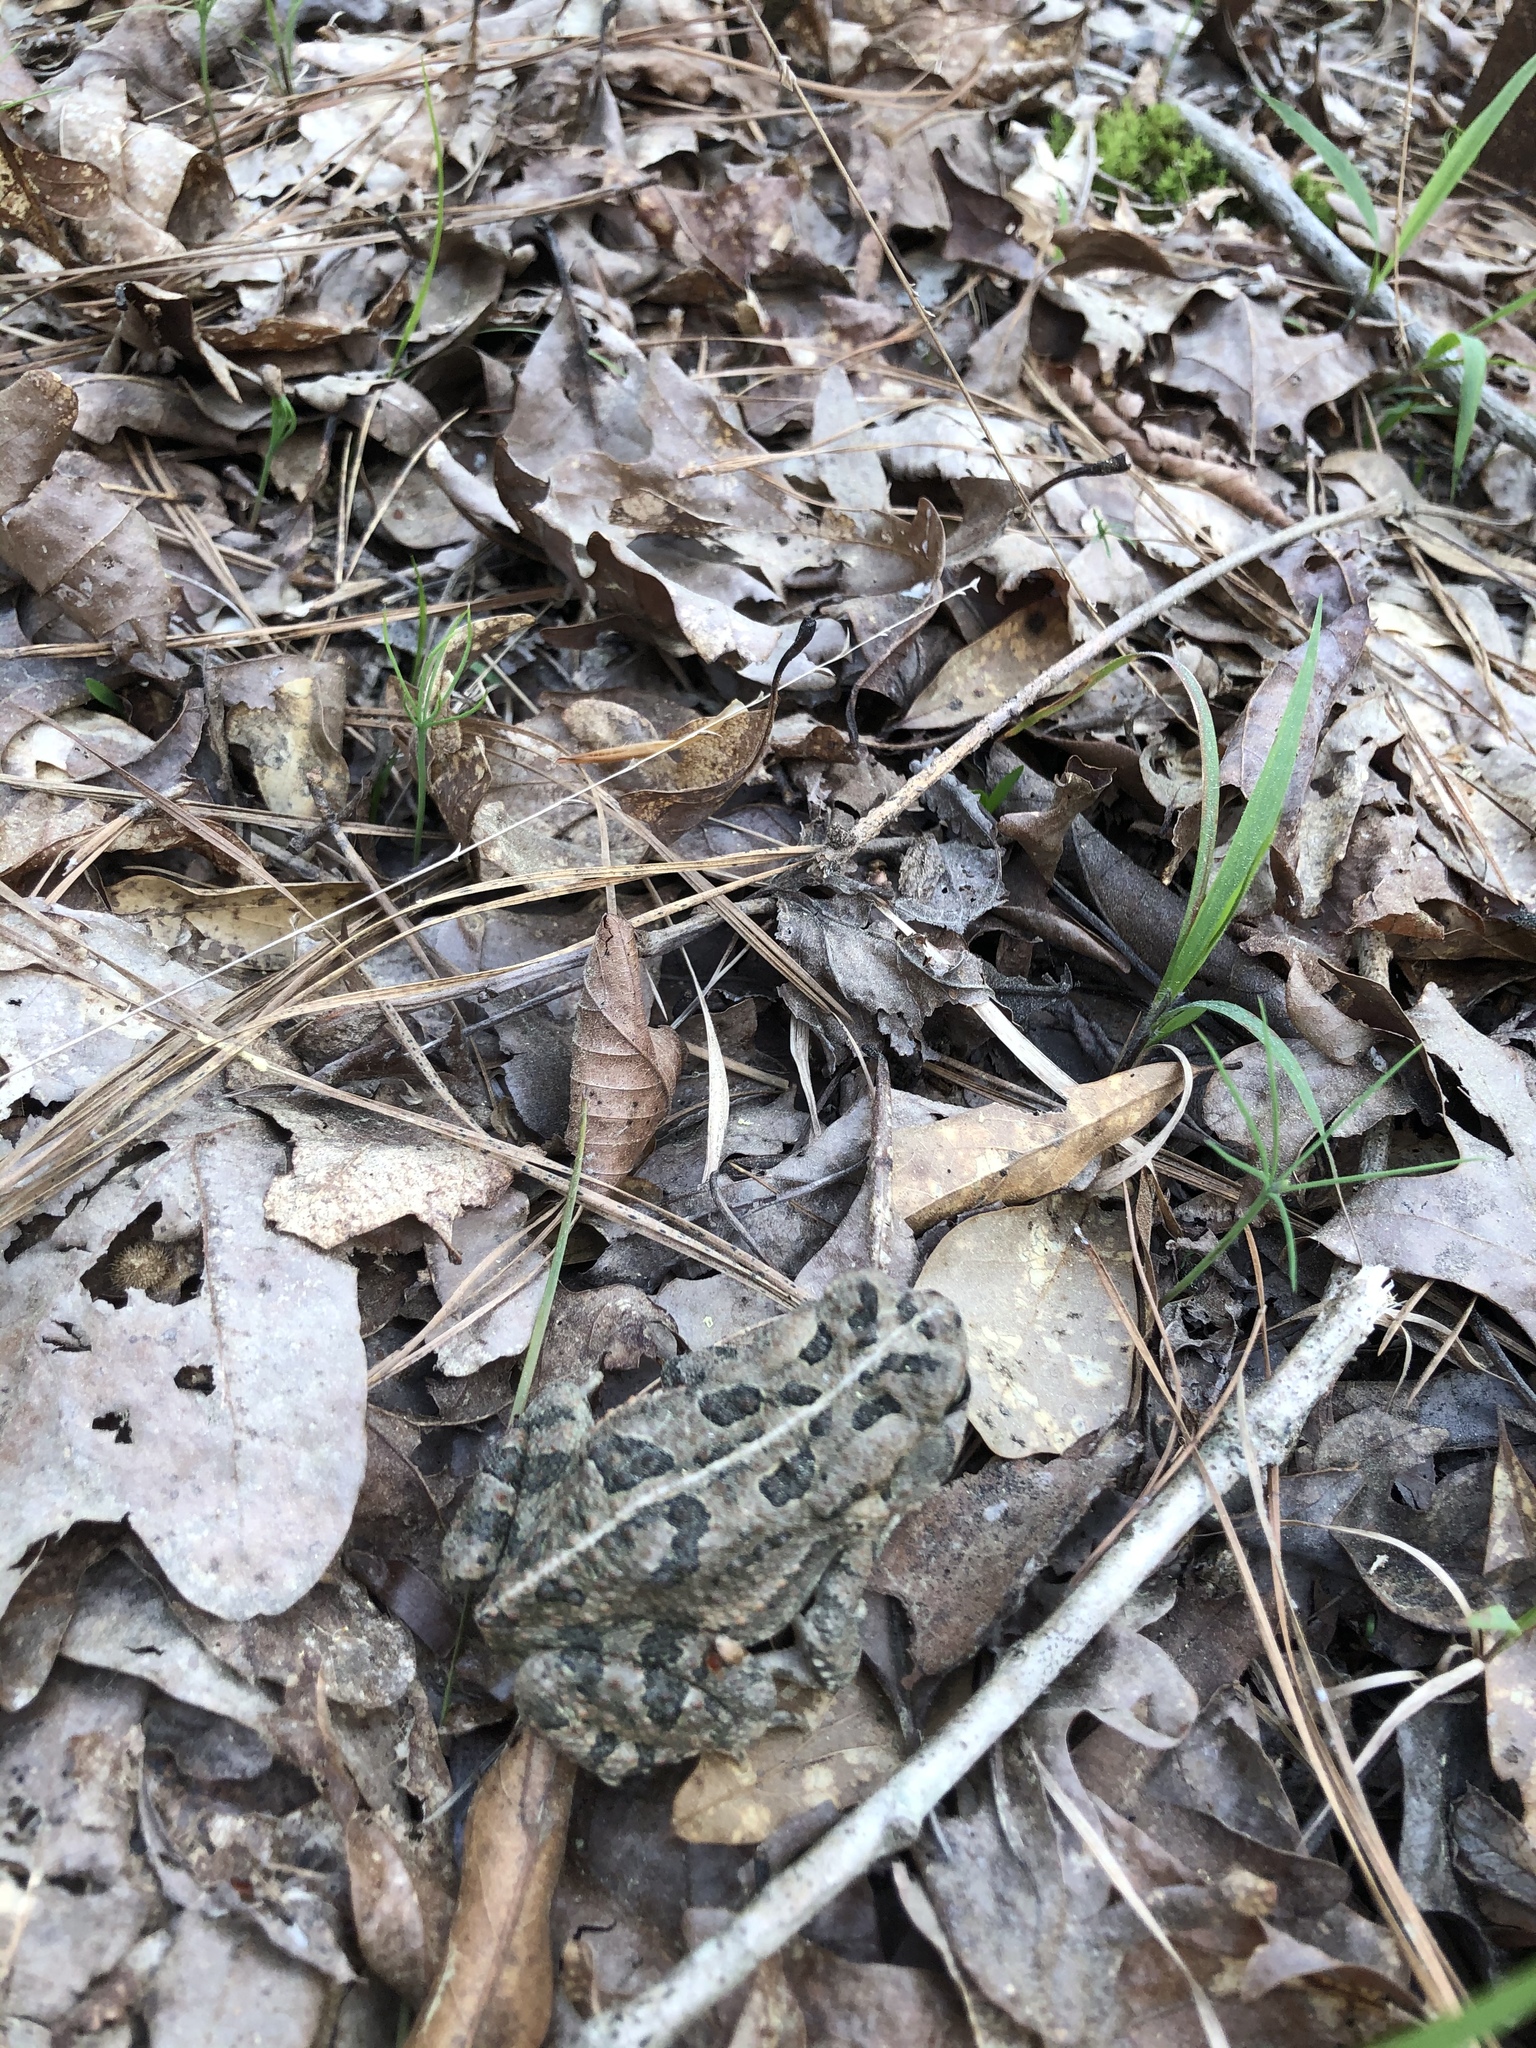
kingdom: Animalia
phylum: Chordata
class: Amphibia
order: Anura
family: Bufonidae
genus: Anaxyrus
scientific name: Anaxyrus fowleri
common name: Fowler's toad
